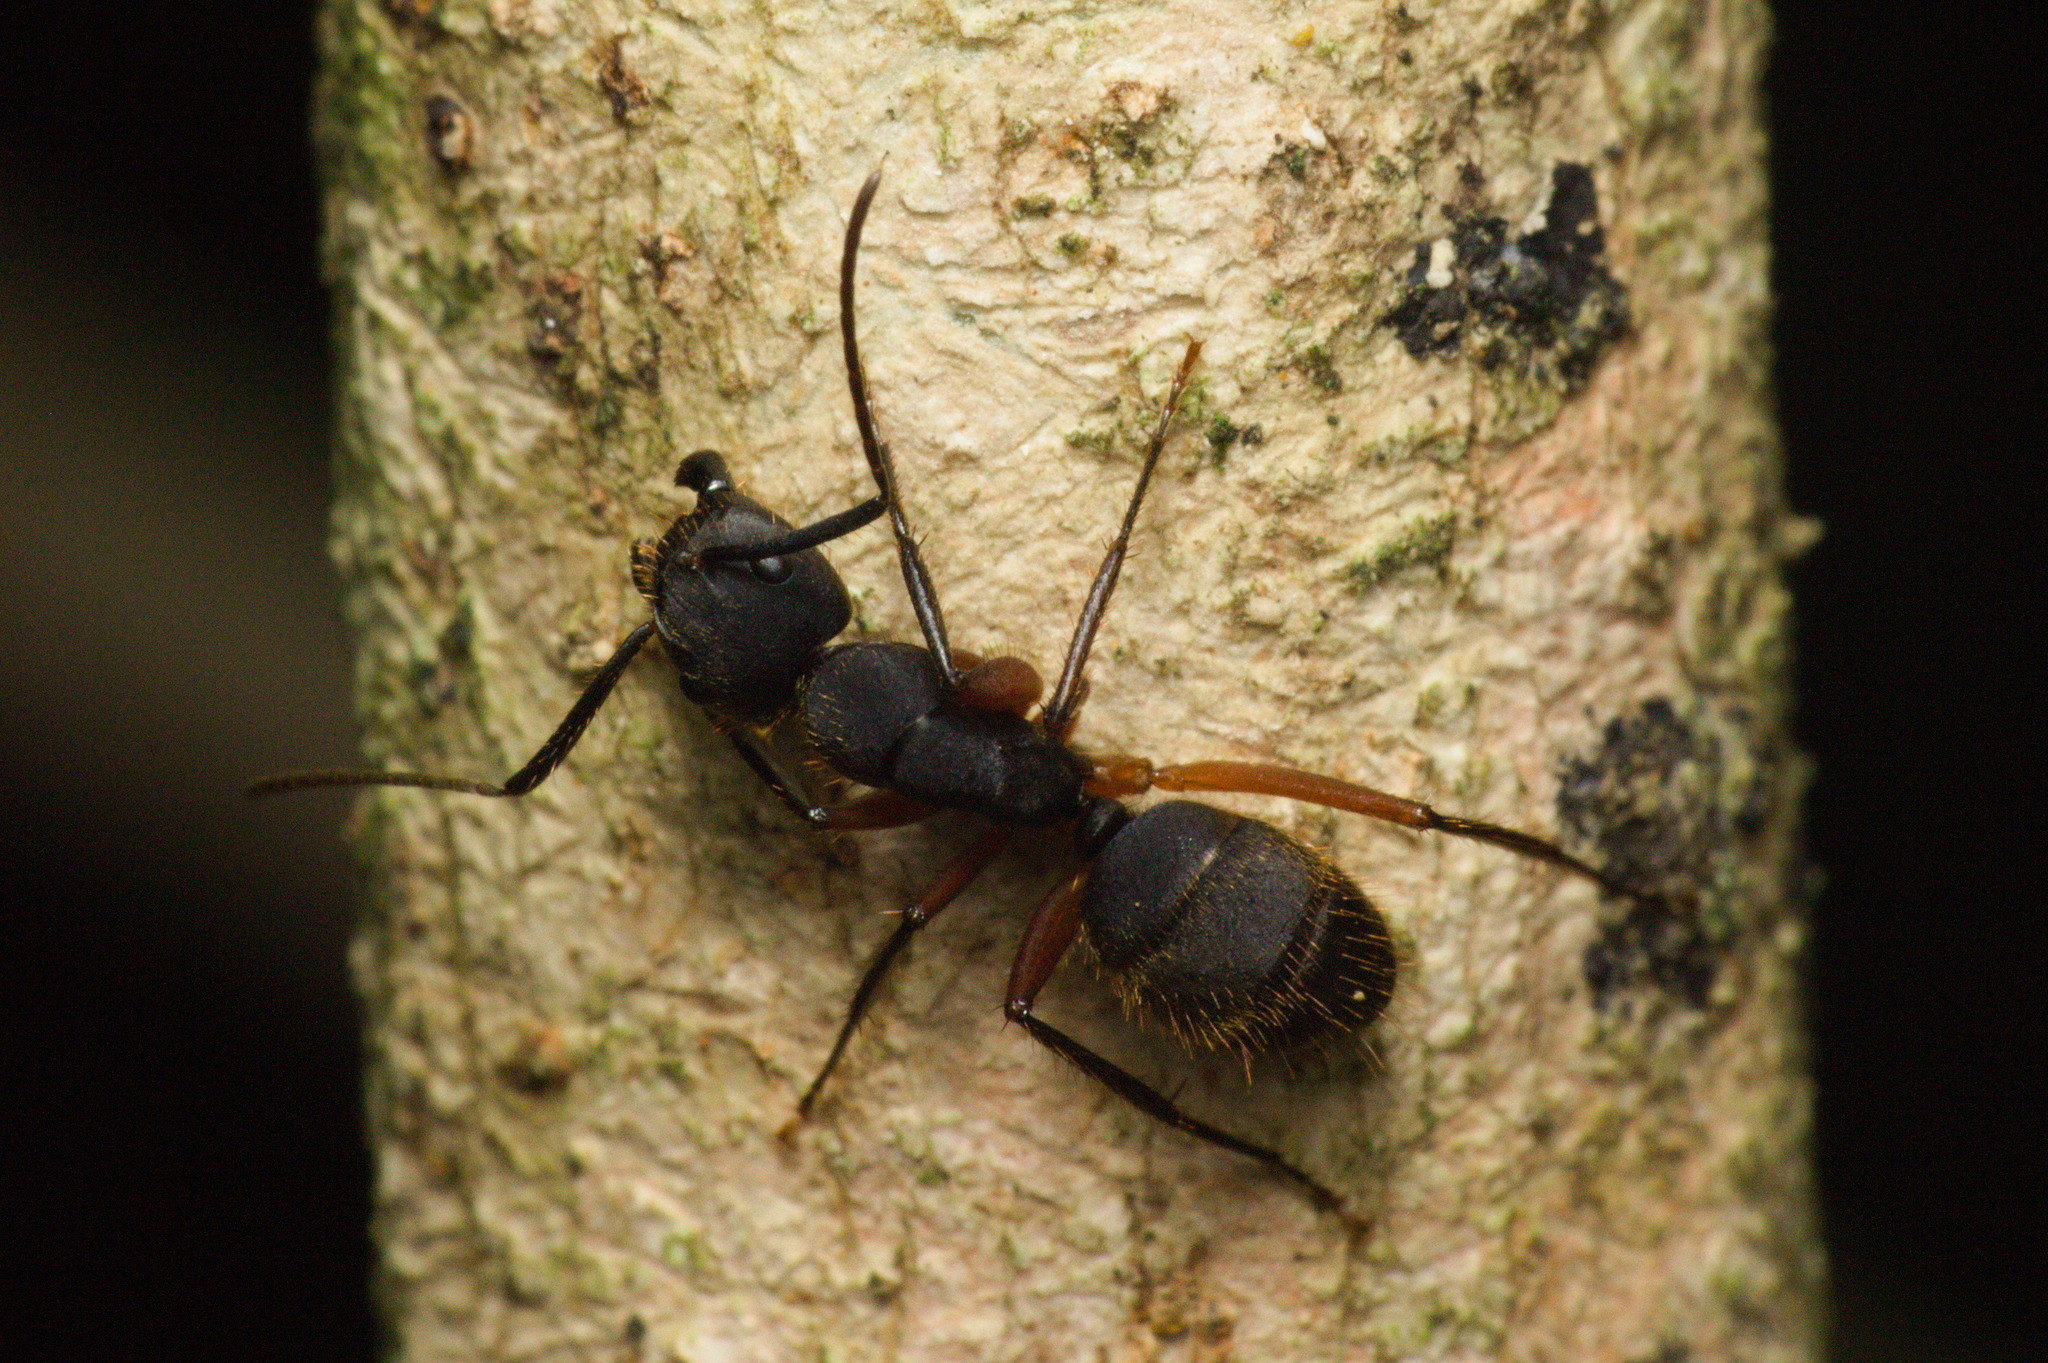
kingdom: Animalia
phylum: Arthropoda
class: Insecta
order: Hymenoptera
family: Formicidae
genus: Camponotus
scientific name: Camponotus rufipes
